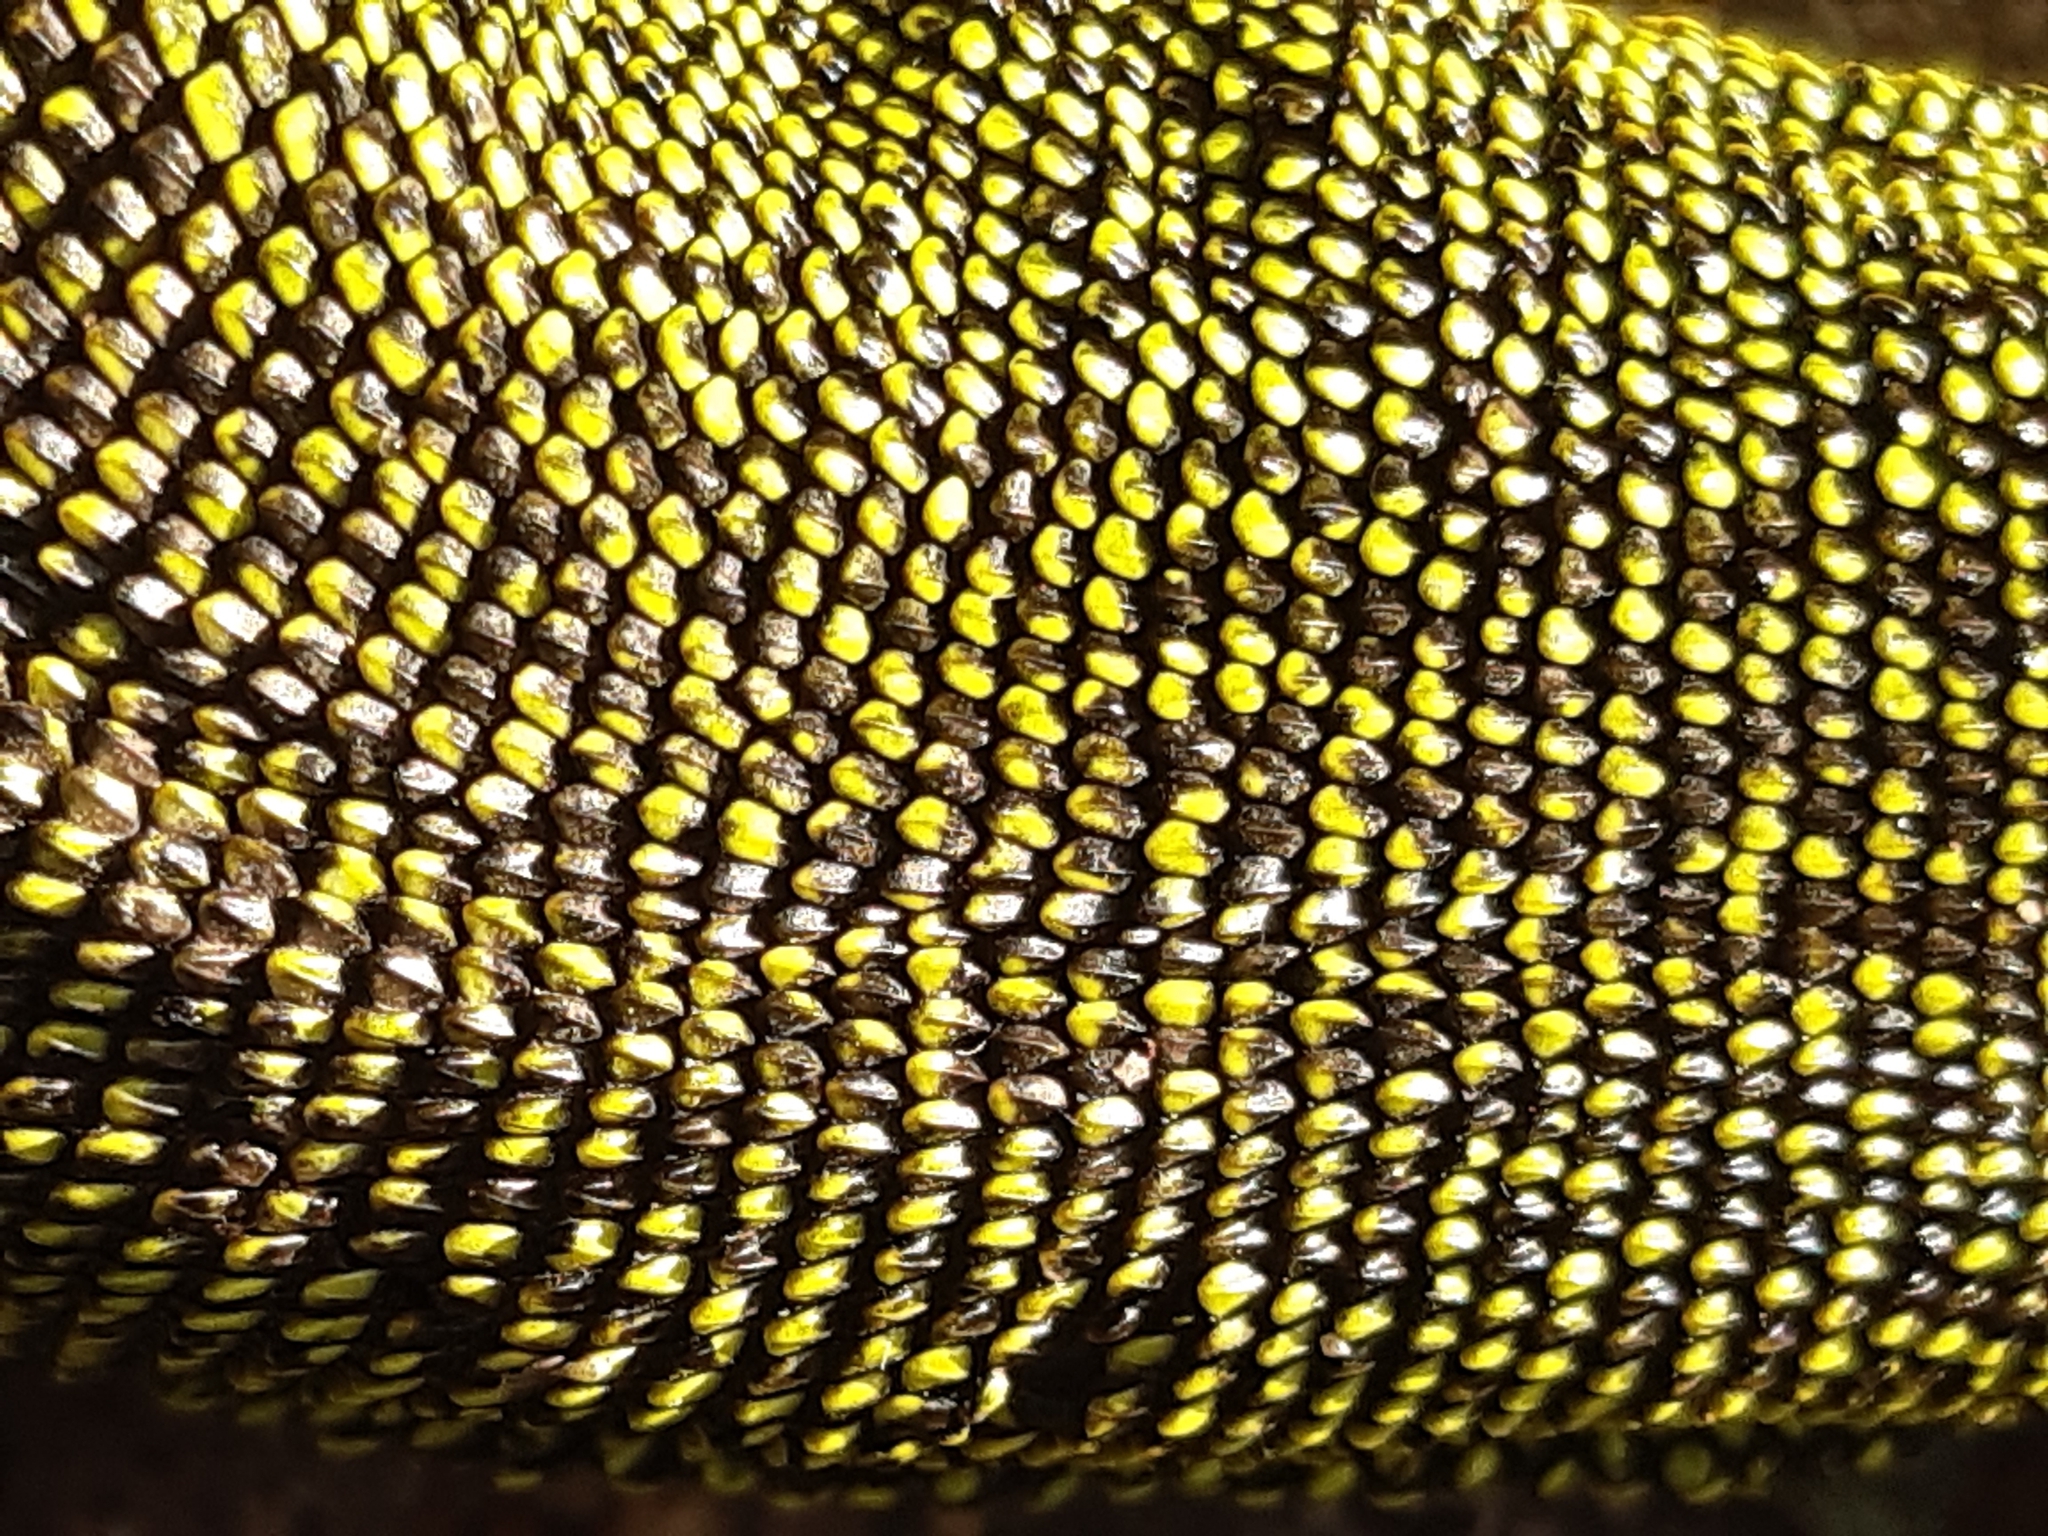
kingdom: Animalia
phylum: Chordata
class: Squamata
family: Lacertidae
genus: Lacerta
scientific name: Lacerta viridis
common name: European green lizard
